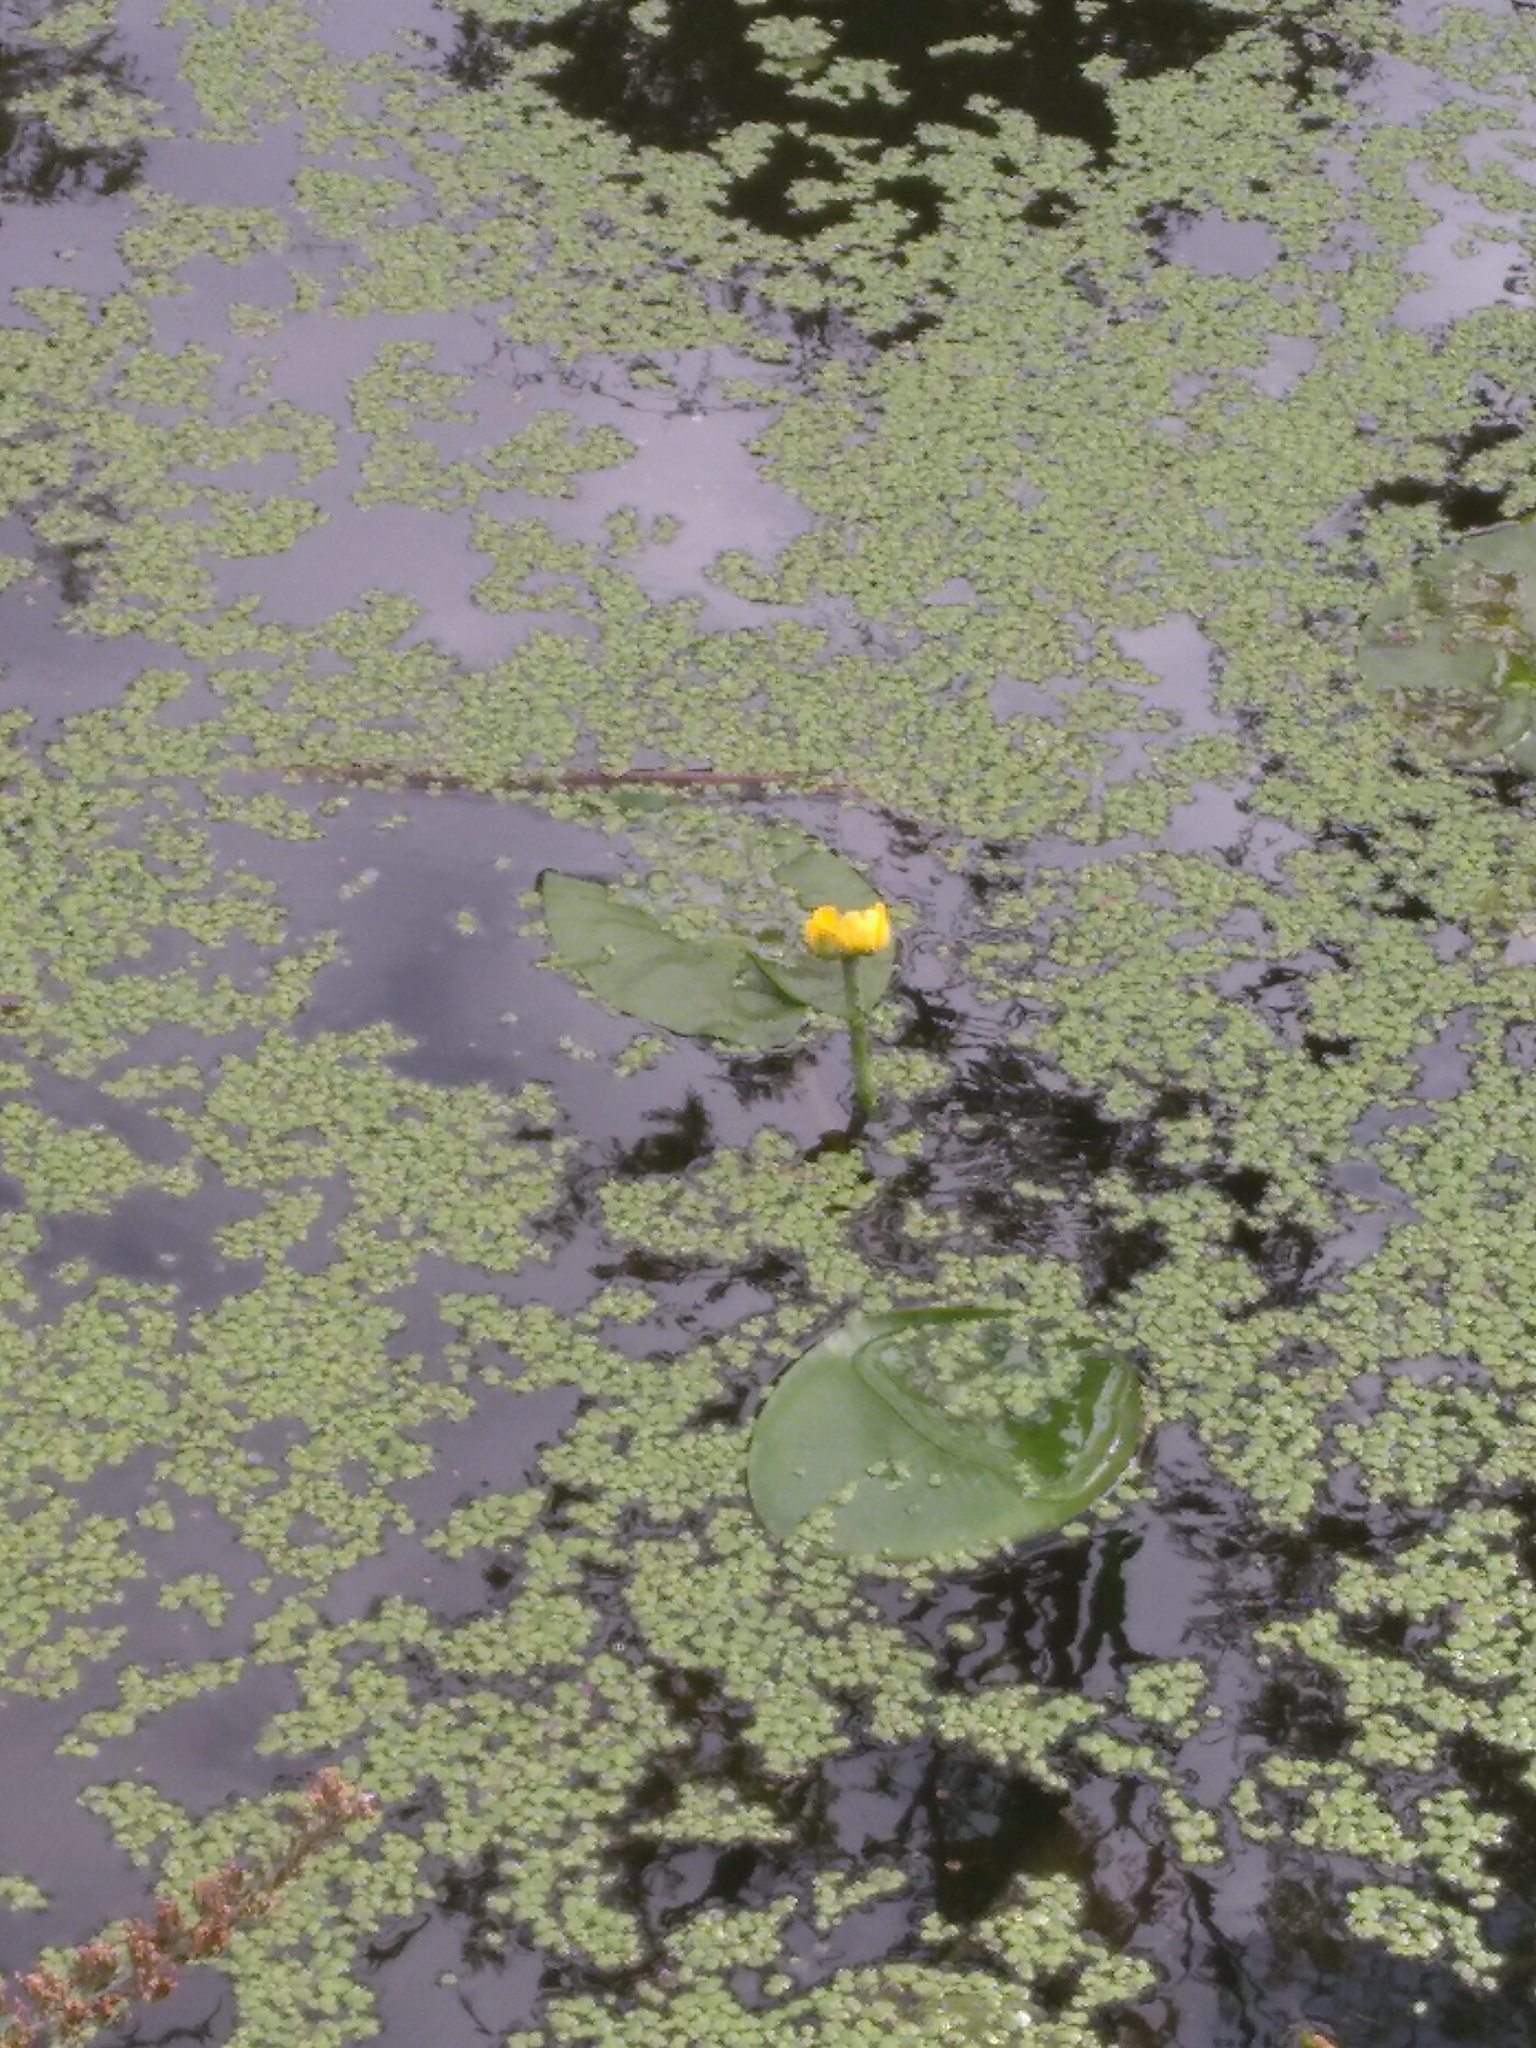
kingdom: Plantae
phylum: Tracheophyta
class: Magnoliopsida
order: Nymphaeales
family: Nymphaeaceae
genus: Nuphar
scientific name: Nuphar lutea
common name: Yellow water-lily
